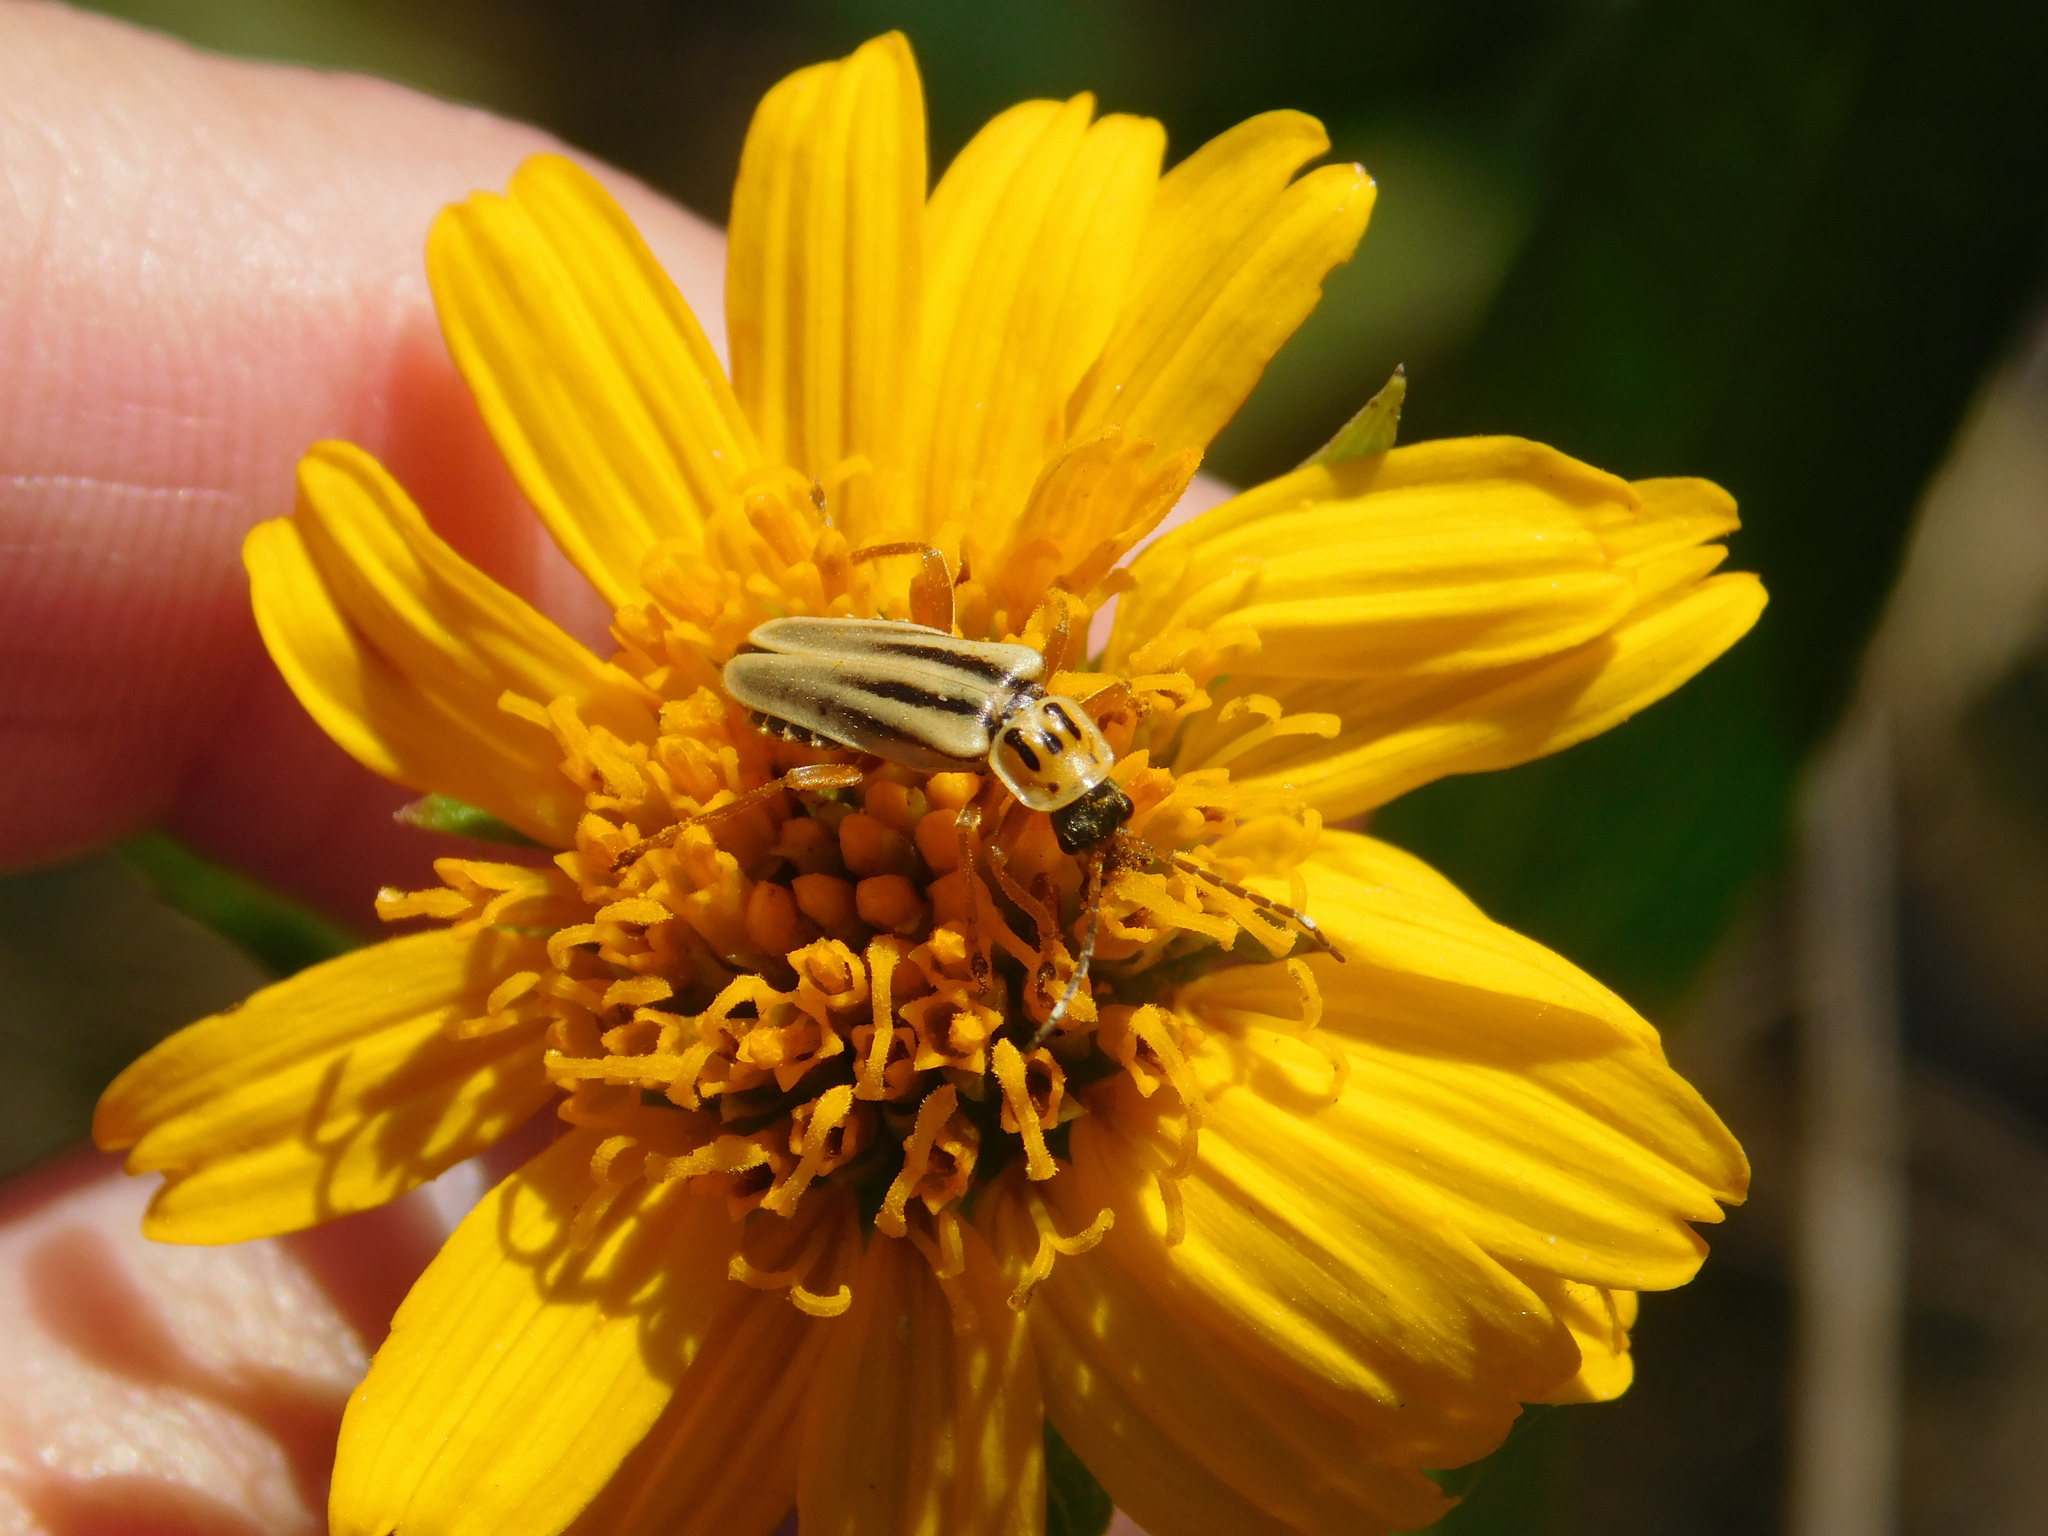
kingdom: Animalia
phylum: Arthropoda
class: Insecta
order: Coleoptera
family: Cantharidae
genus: Chauliognathus
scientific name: Chauliognathus
